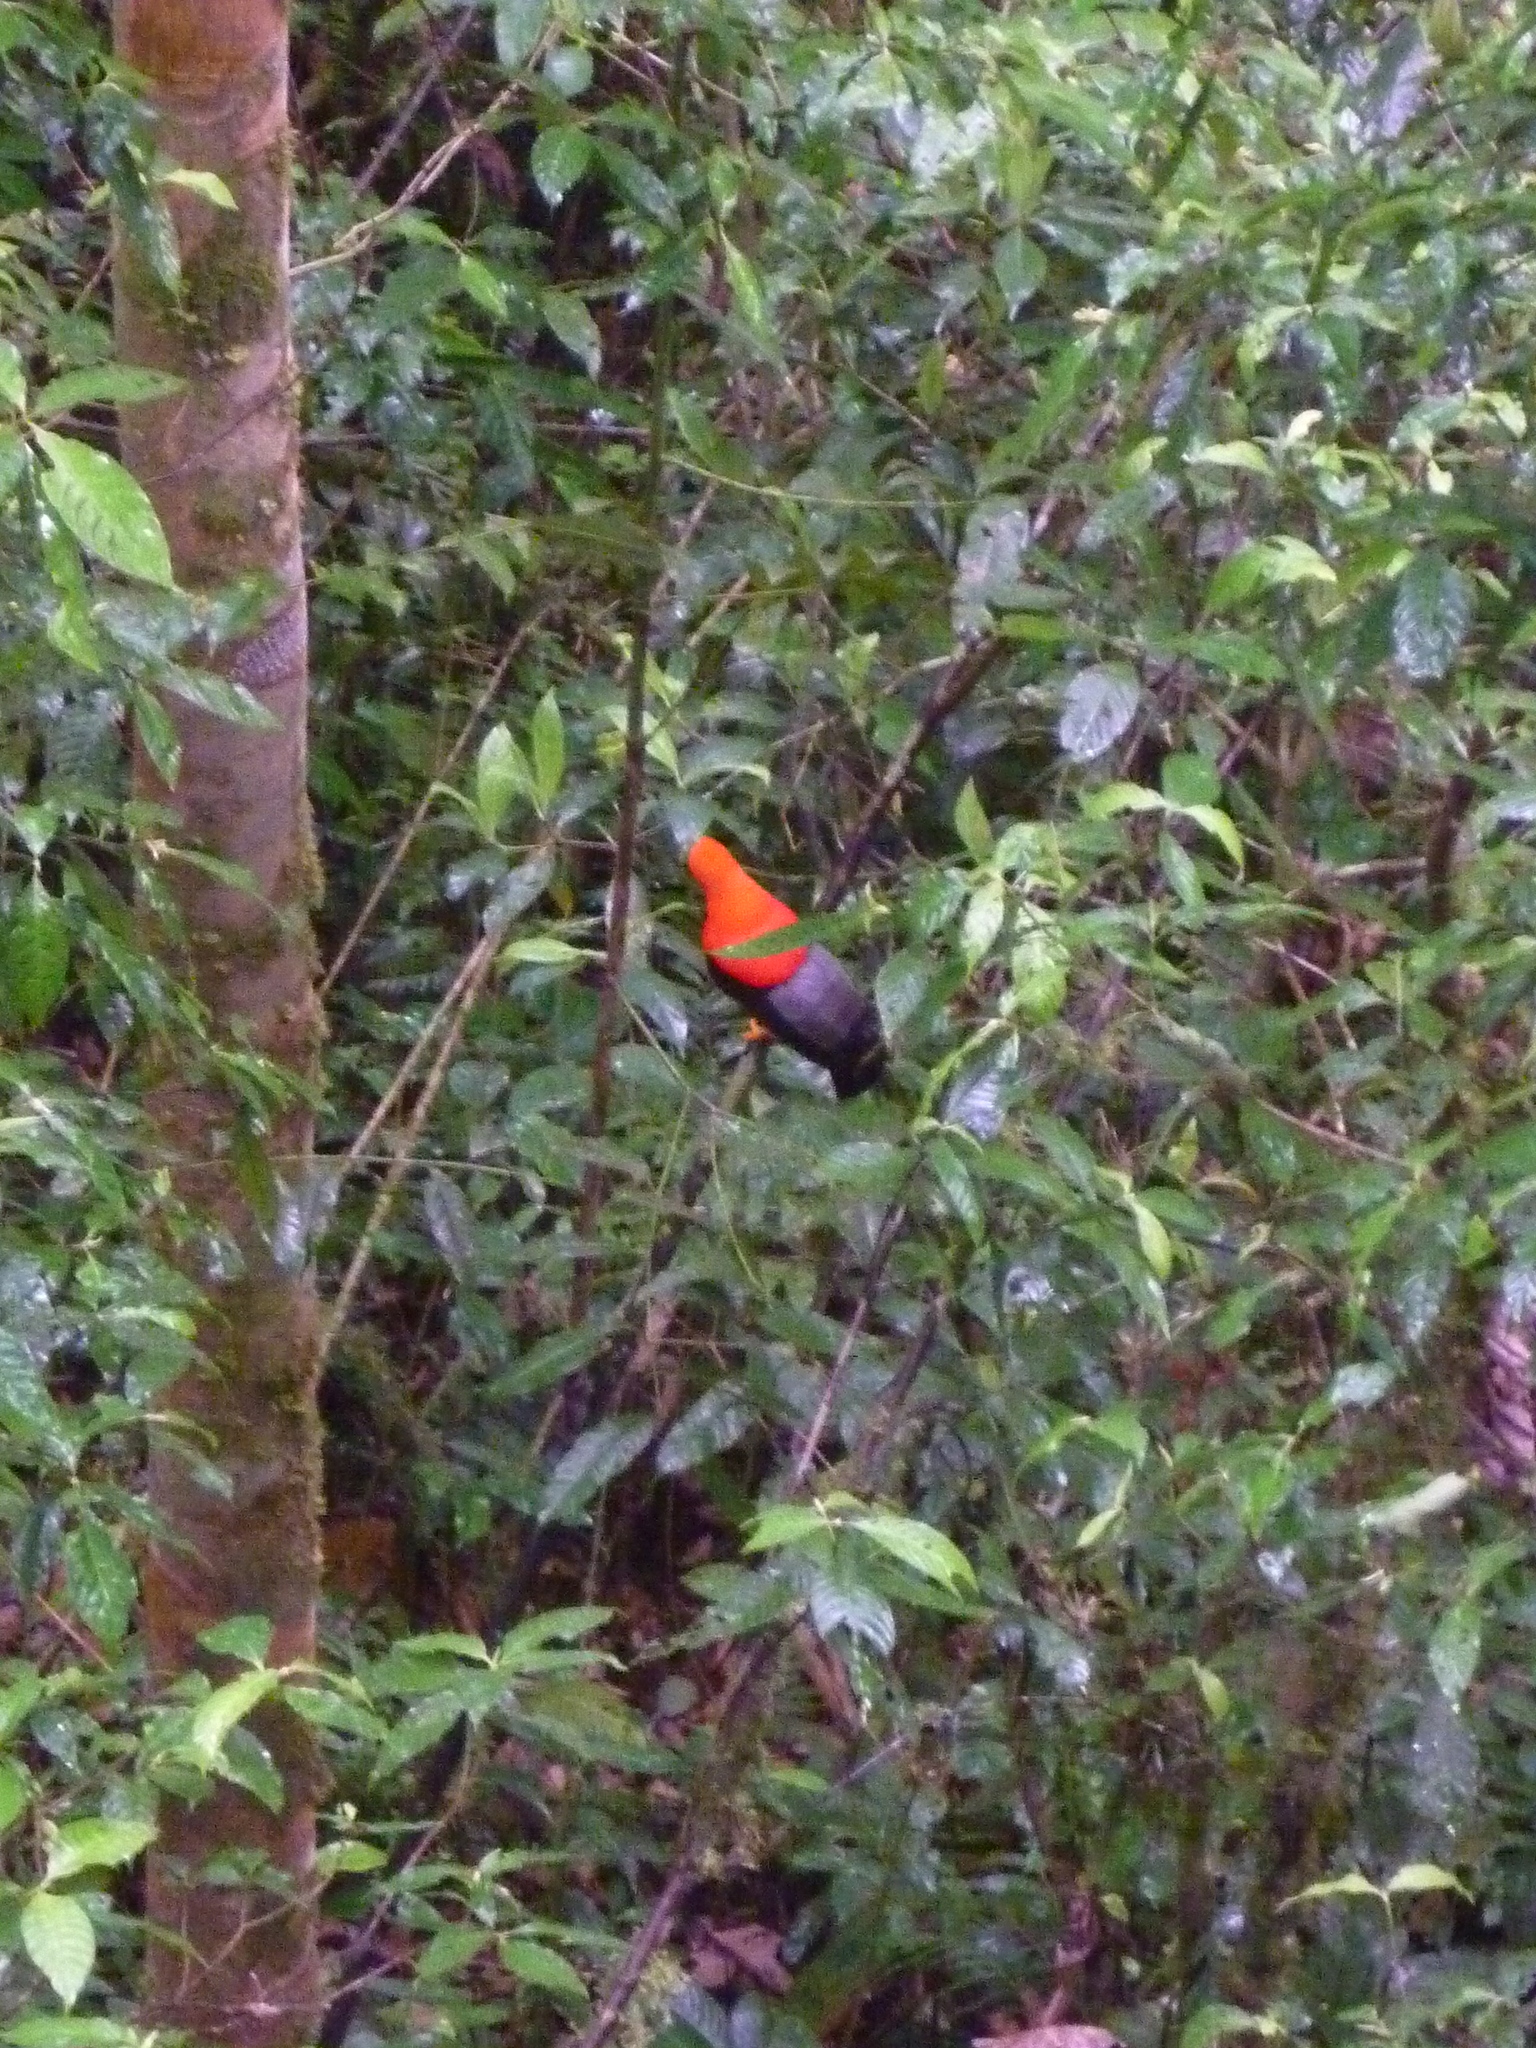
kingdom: Animalia
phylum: Chordata
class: Aves
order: Passeriformes
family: Cotingidae
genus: Rupicola
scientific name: Rupicola peruvianus
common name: Andean cock-of-the-rock
